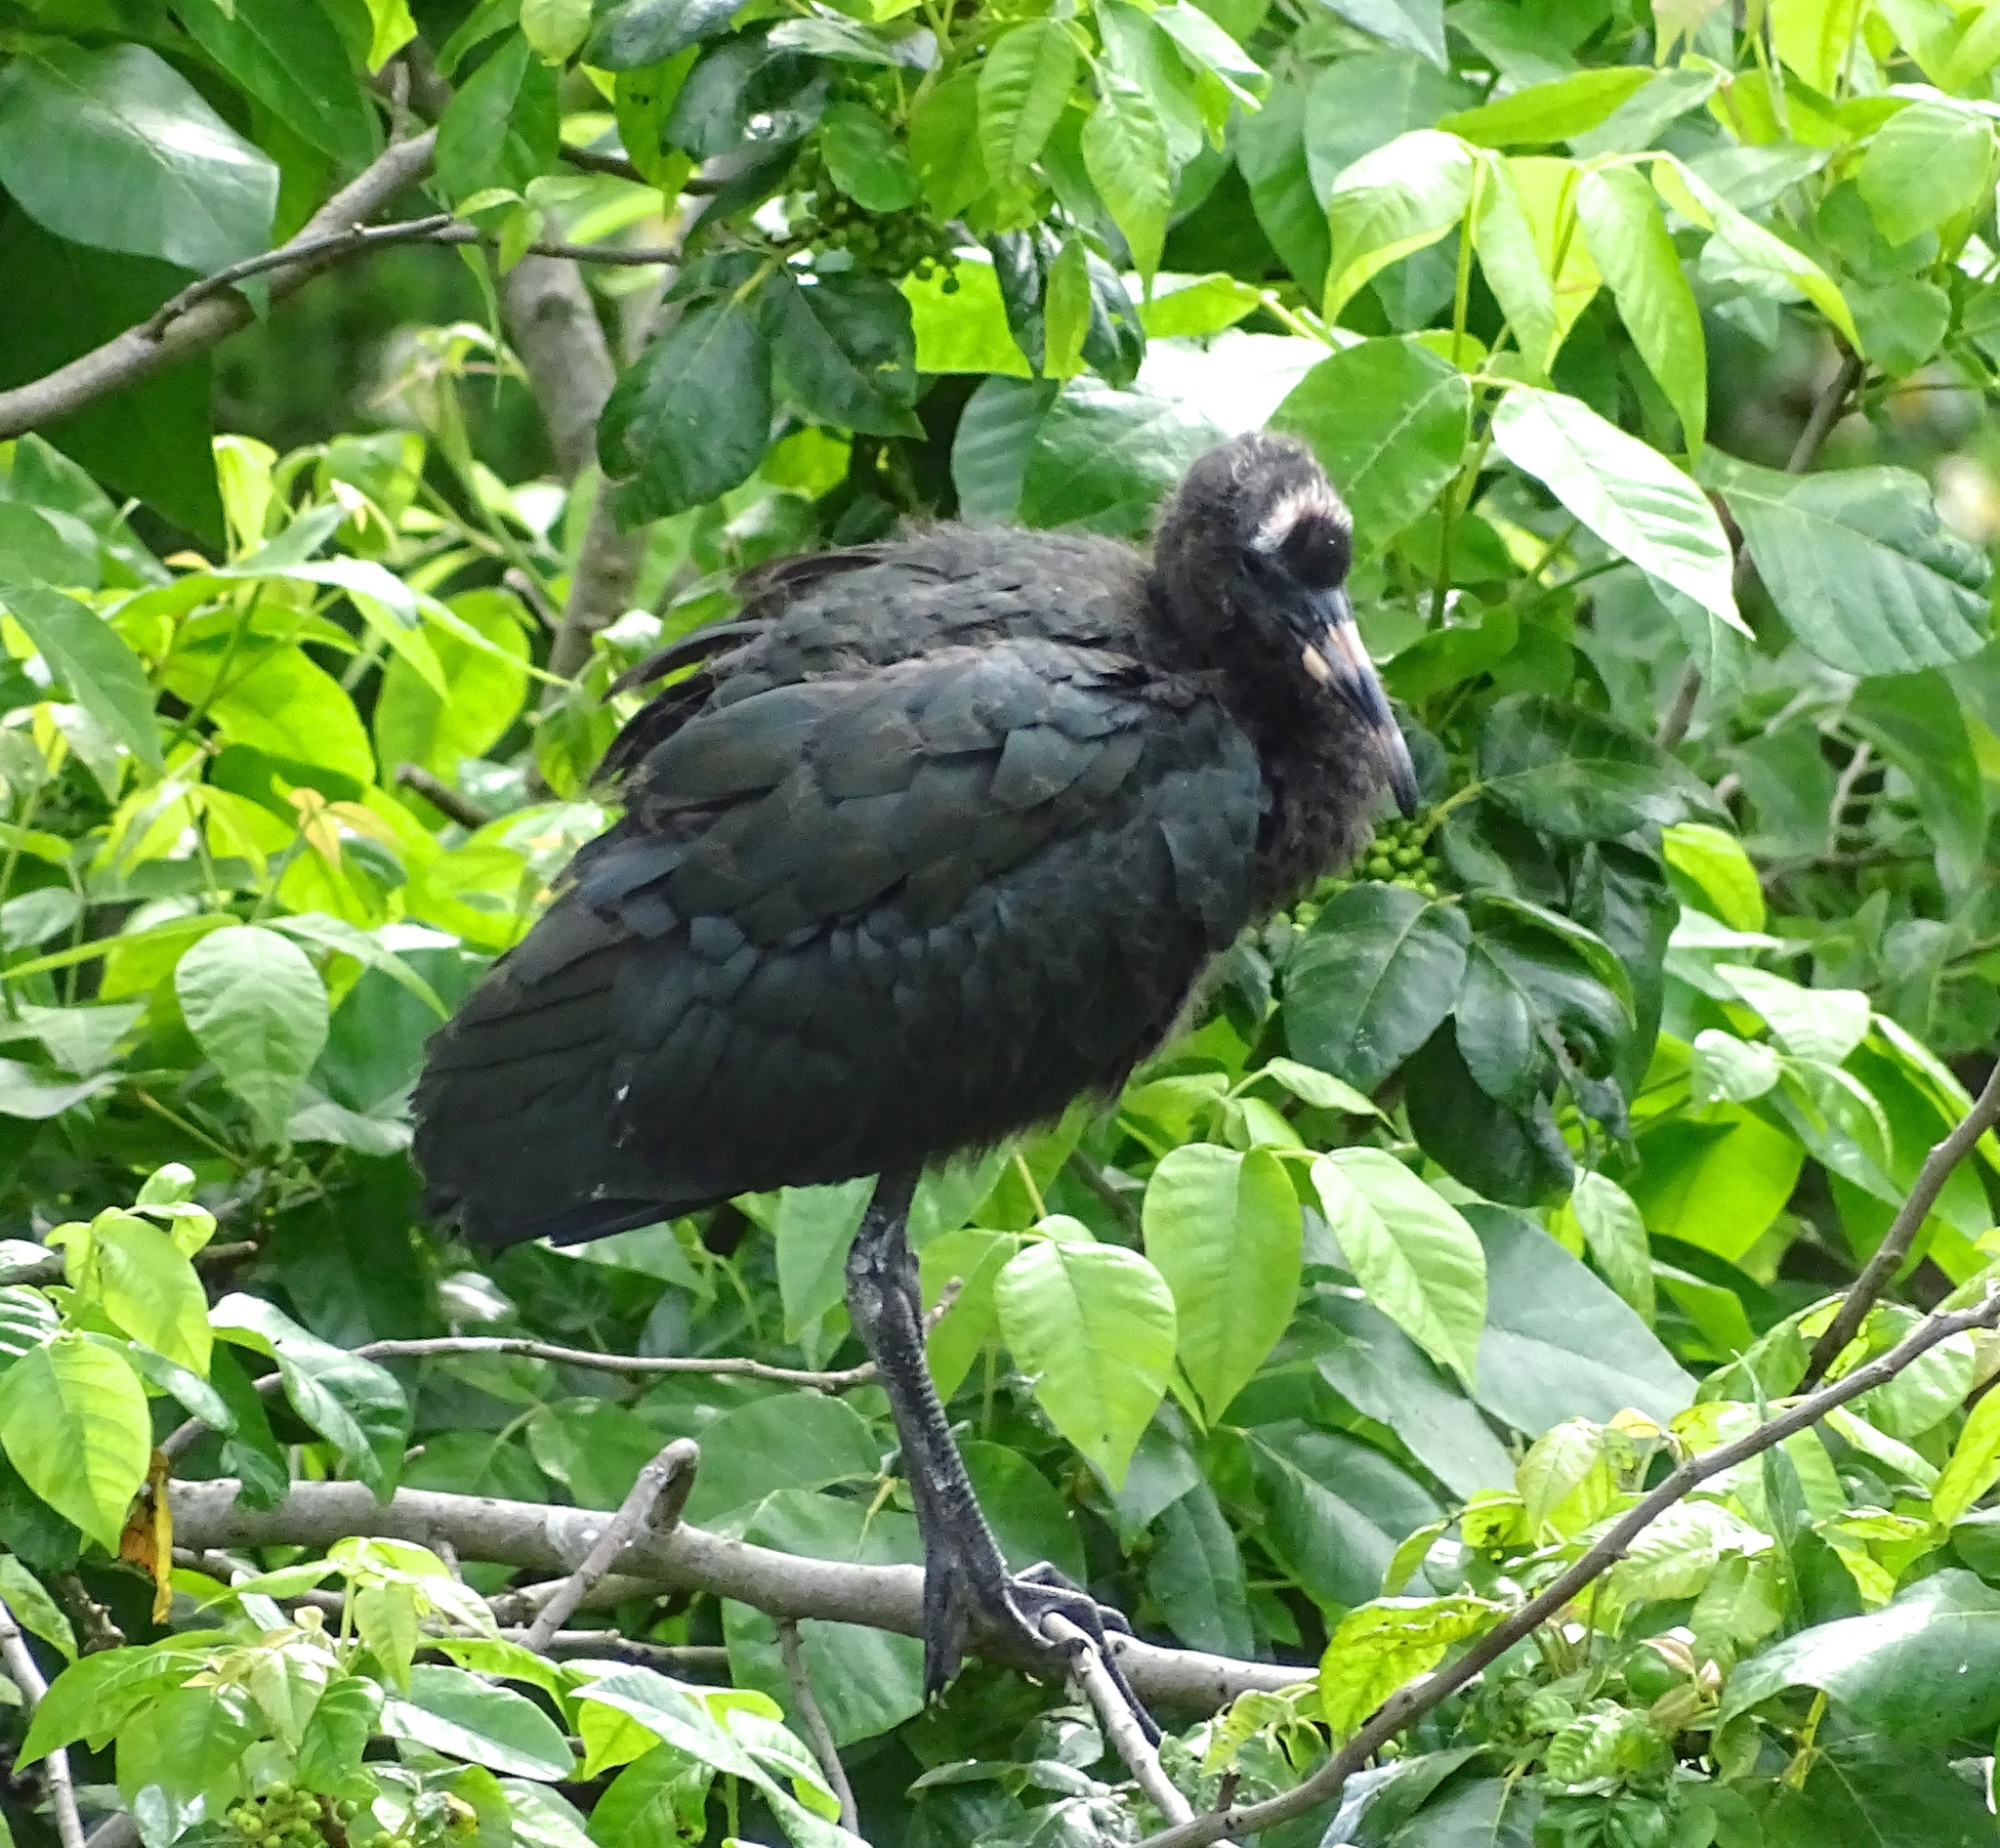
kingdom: Animalia
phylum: Chordata
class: Aves
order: Pelecaniformes
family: Threskiornithidae
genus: Plegadis
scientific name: Plegadis falcinellus
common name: Glossy ibis
